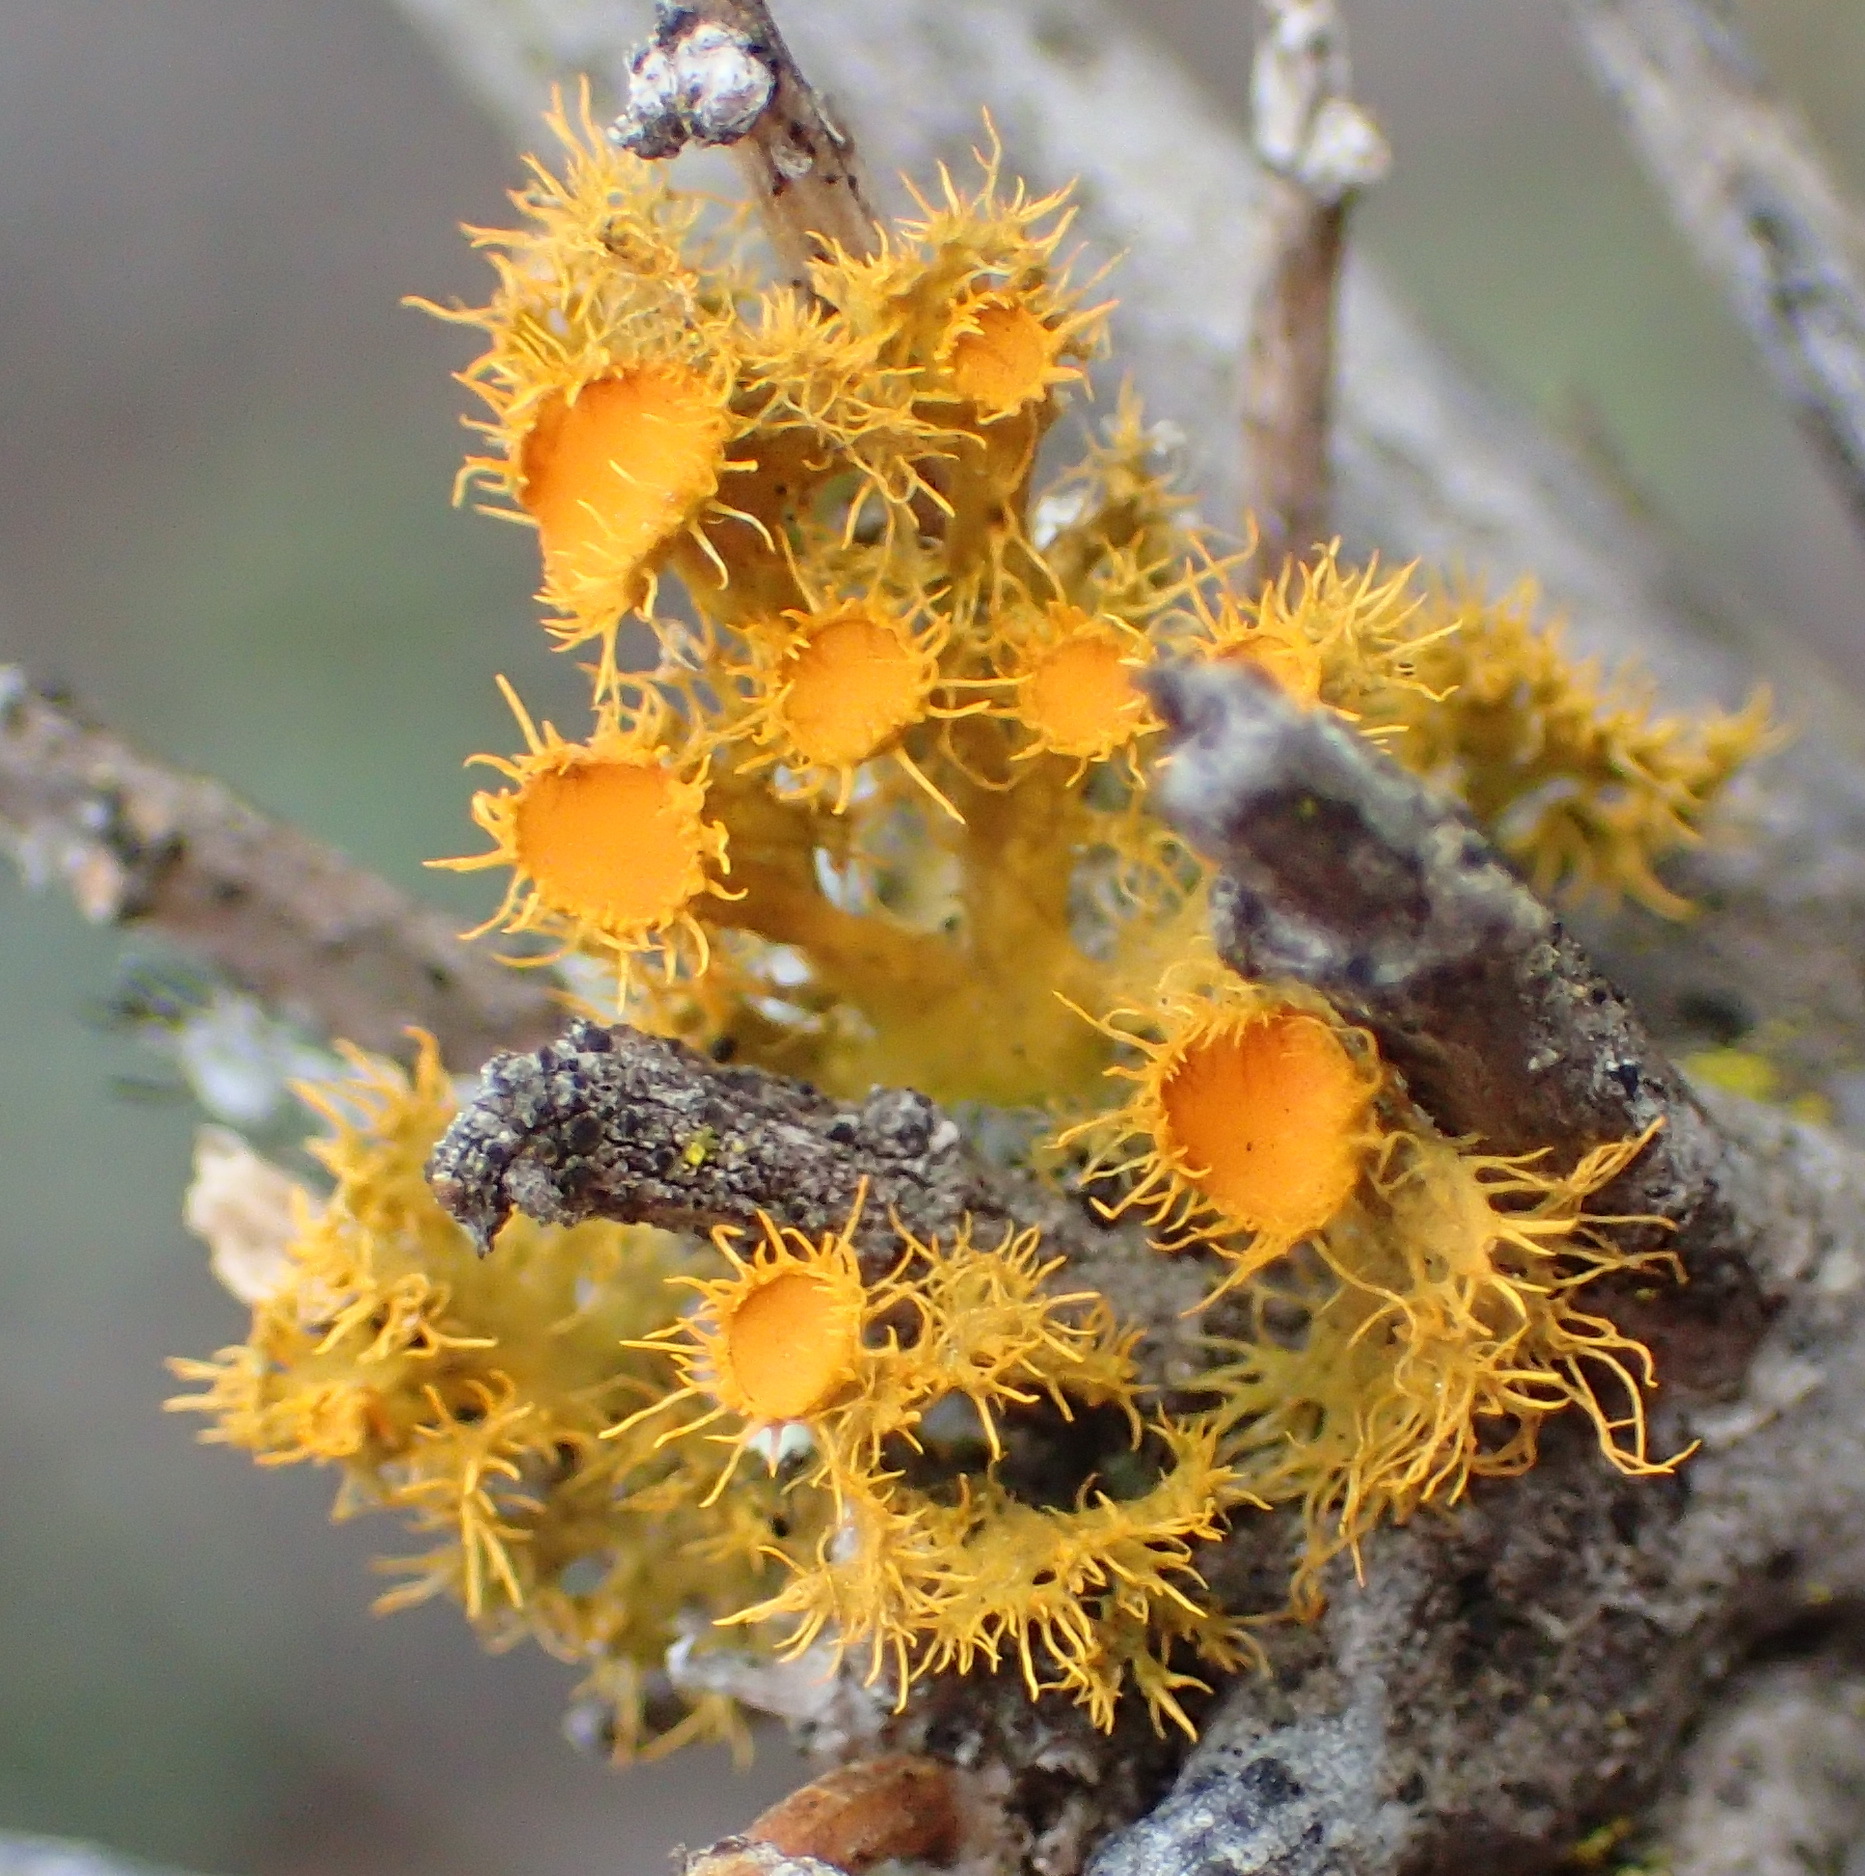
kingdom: Fungi
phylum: Ascomycota
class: Lecanoromycetes
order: Teloschistales
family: Teloschistaceae
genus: Niorma
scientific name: Niorma chrysophthalma
